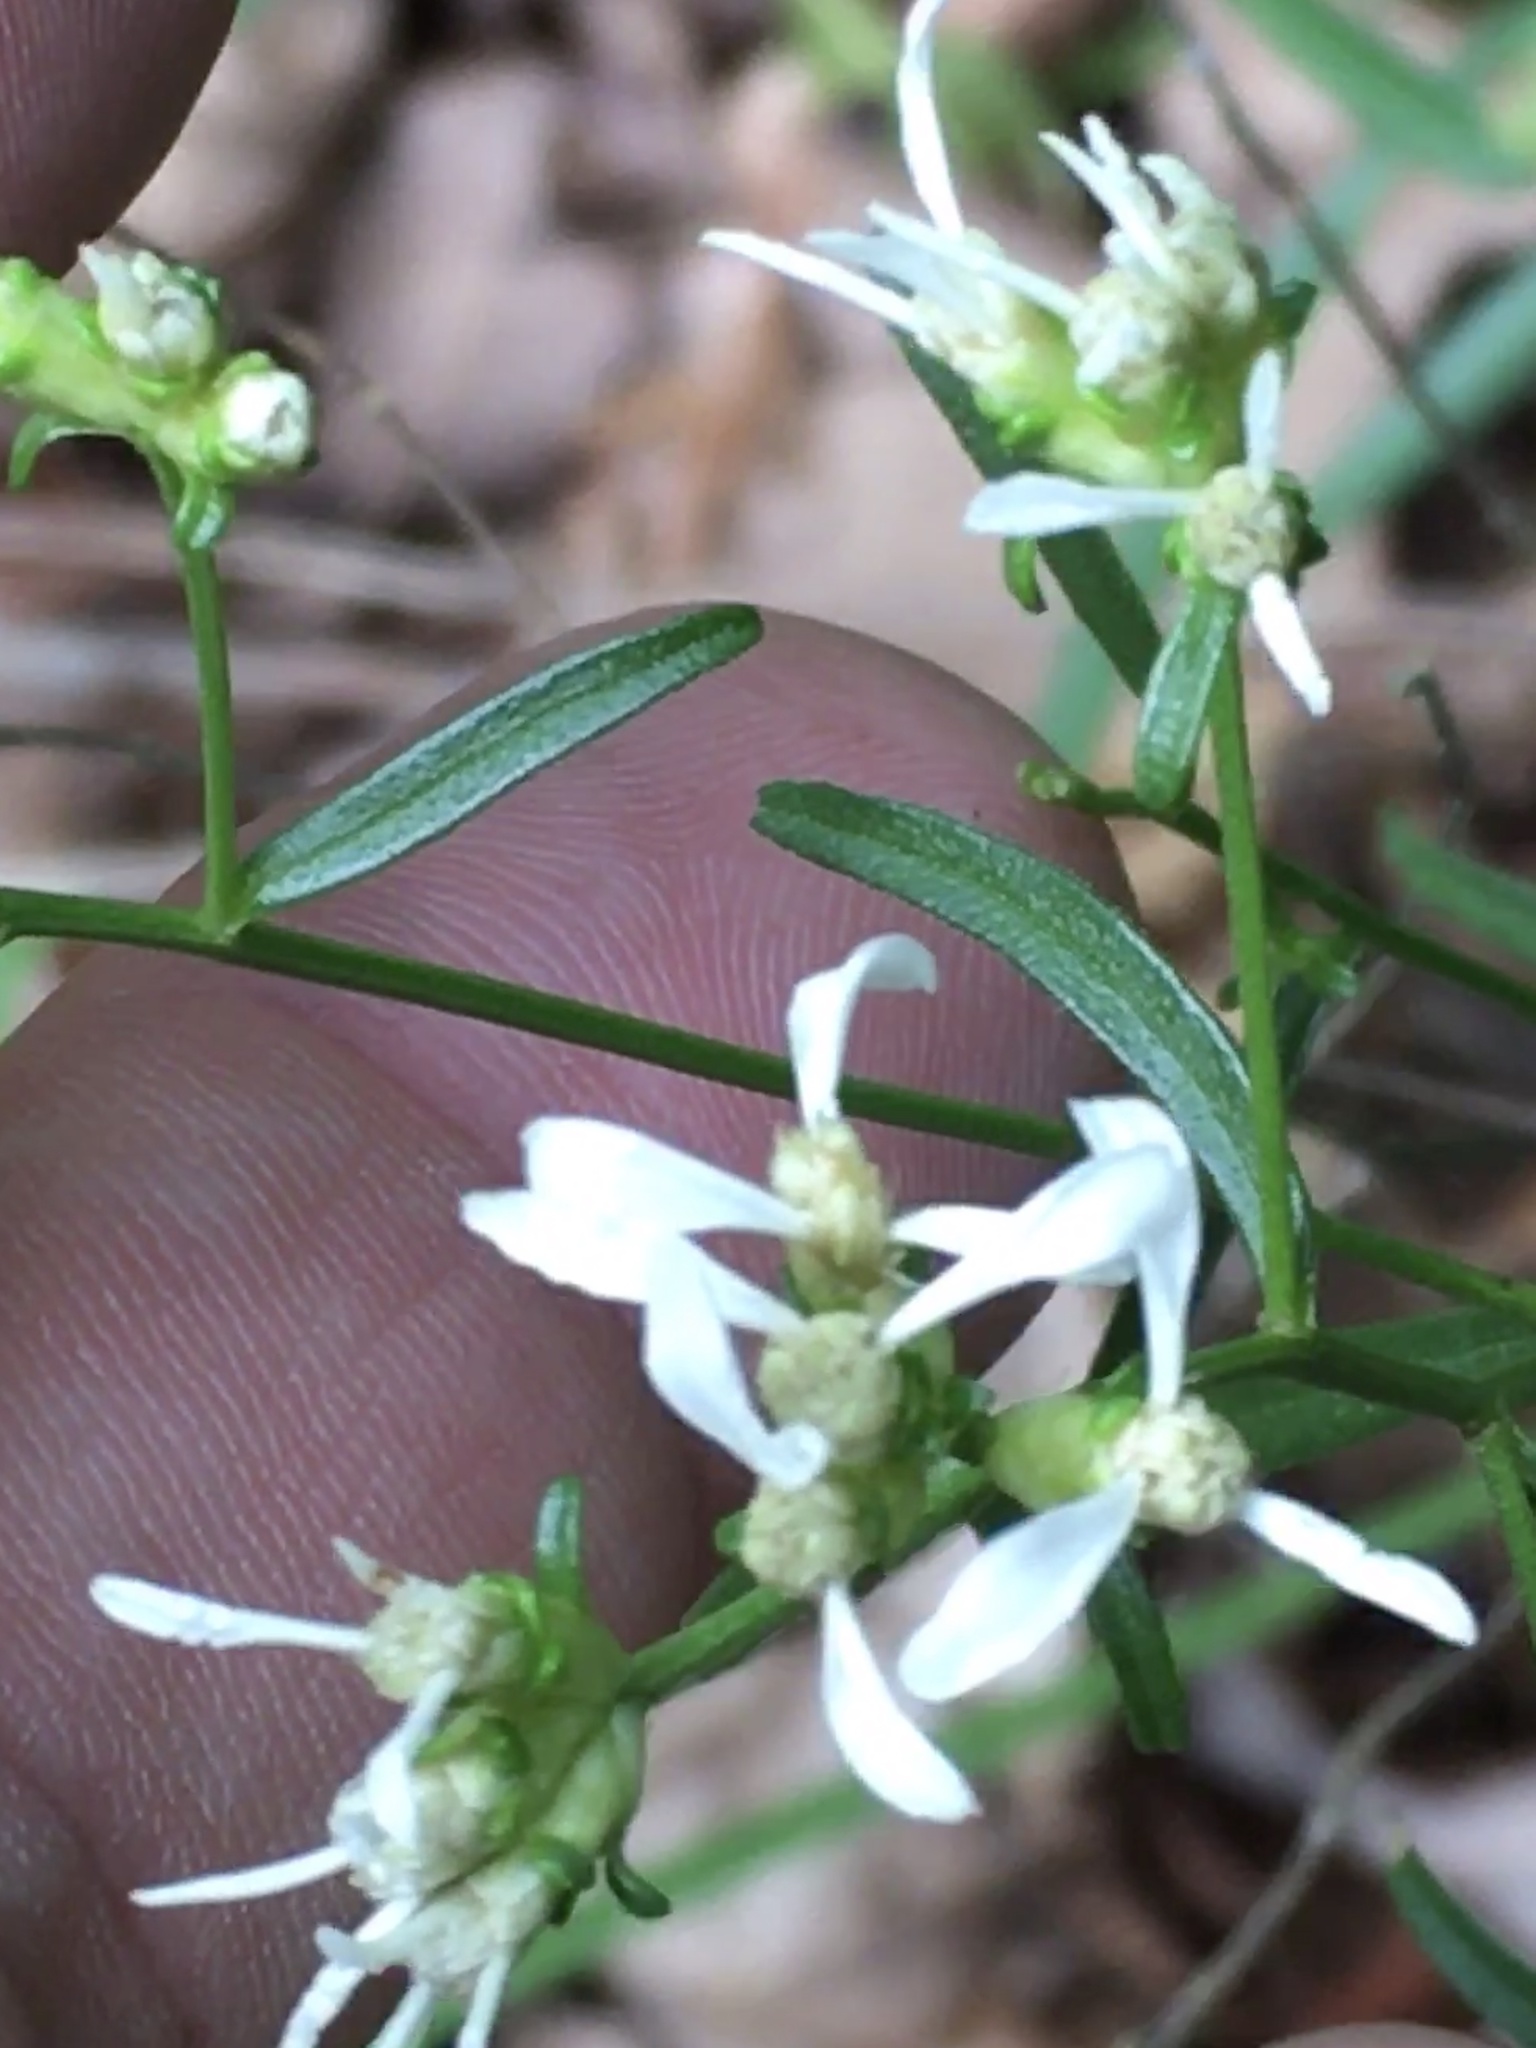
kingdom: Plantae
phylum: Tracheophyta
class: Magnoliopsida
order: Asterales
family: Asteraceae
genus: Sericocarpus
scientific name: Sericocarpus linifolius
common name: Narrow-leaf aster
